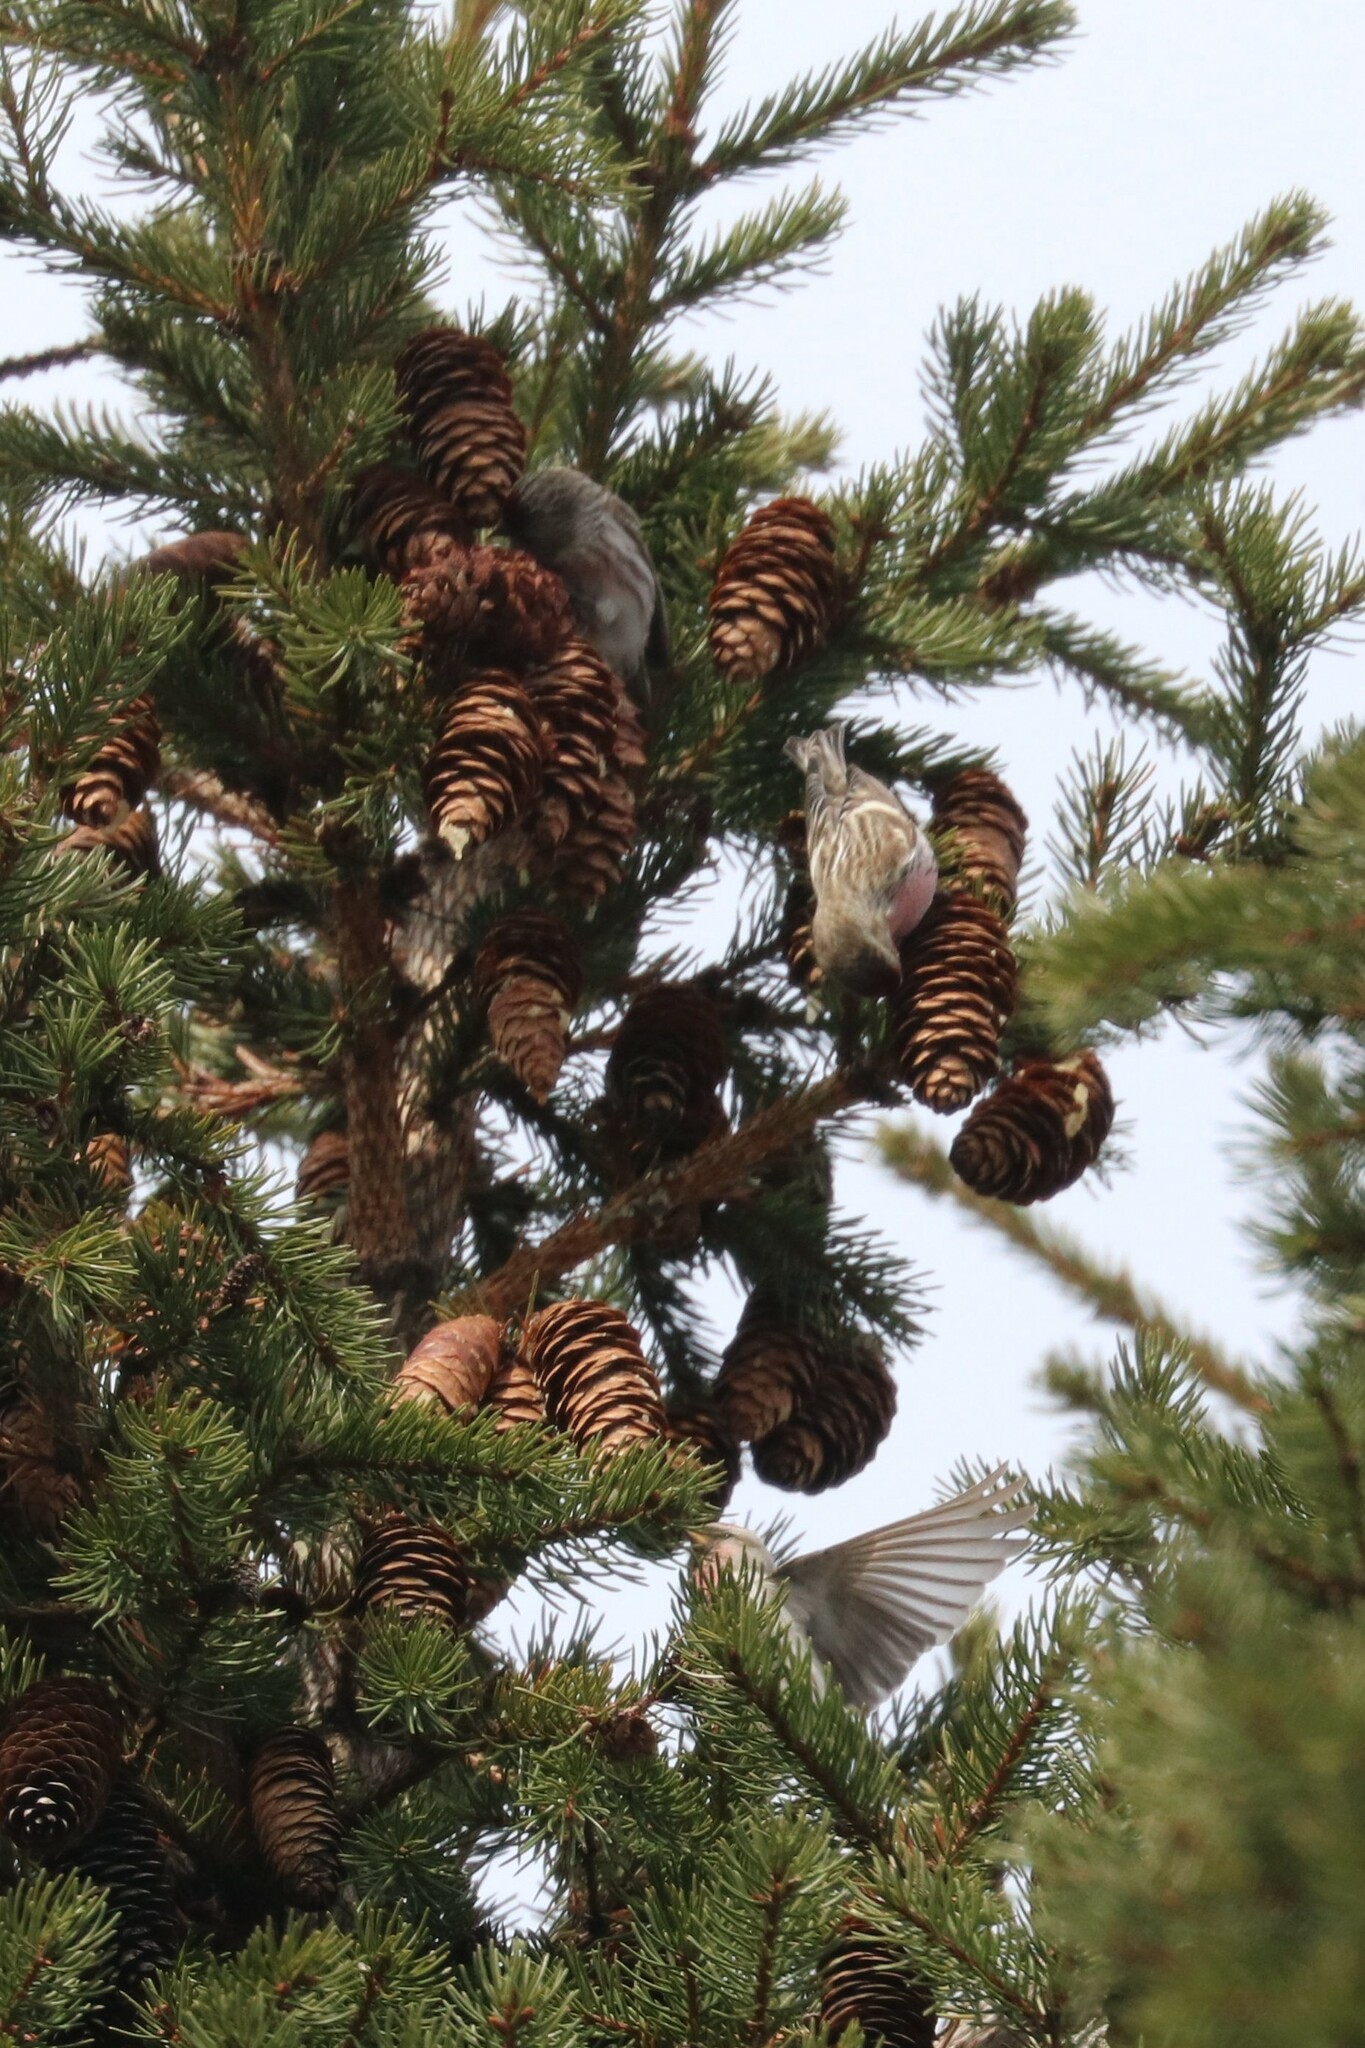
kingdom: Animalia
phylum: Chordata
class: Aves
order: Passeriformes
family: Fringillidae
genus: Acanthis
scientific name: Acanthis flammea
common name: Common redpoll
